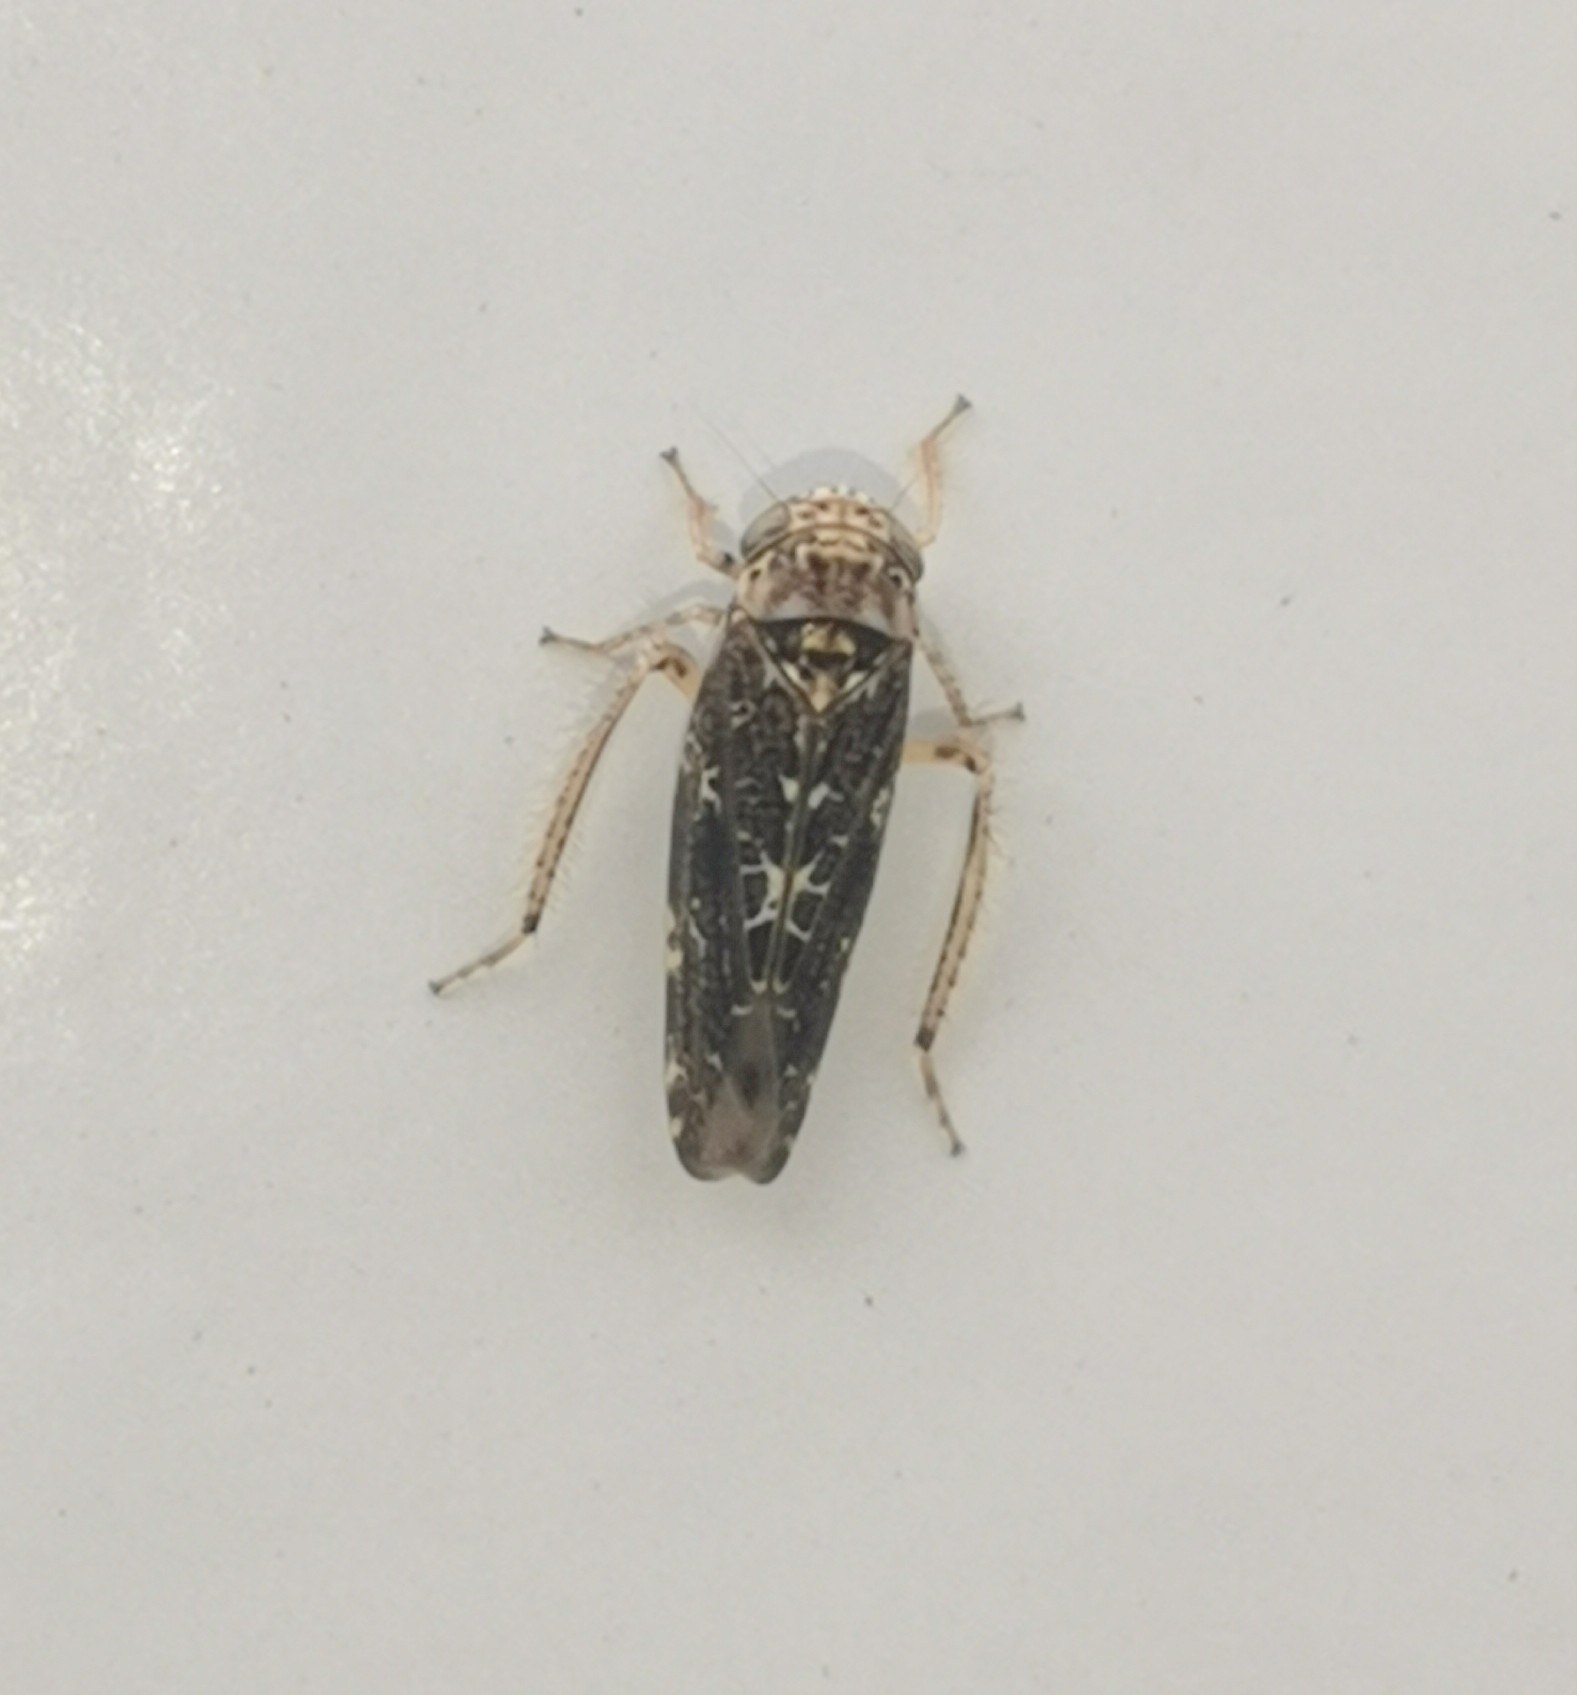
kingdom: Animalia
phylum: Arthropoda
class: Insecta
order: Hemiptera
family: Cicadellidae
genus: Allygus
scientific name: Allygus mixtus
